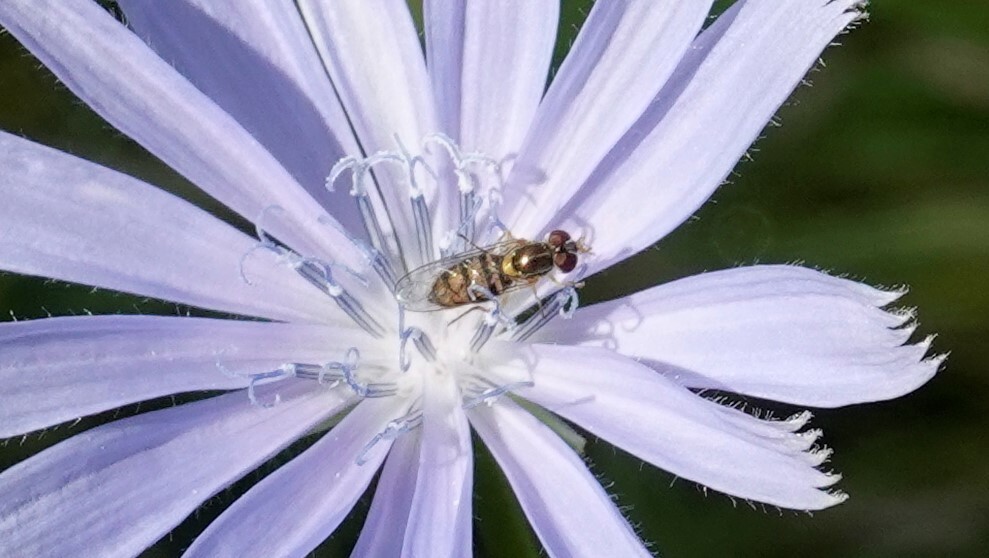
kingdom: Animalia
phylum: Arthropoda
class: Insecta
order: Diptera
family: Syrphidae
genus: Toxomerus
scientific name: Toxomerus marginatus
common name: Syrphid fly
